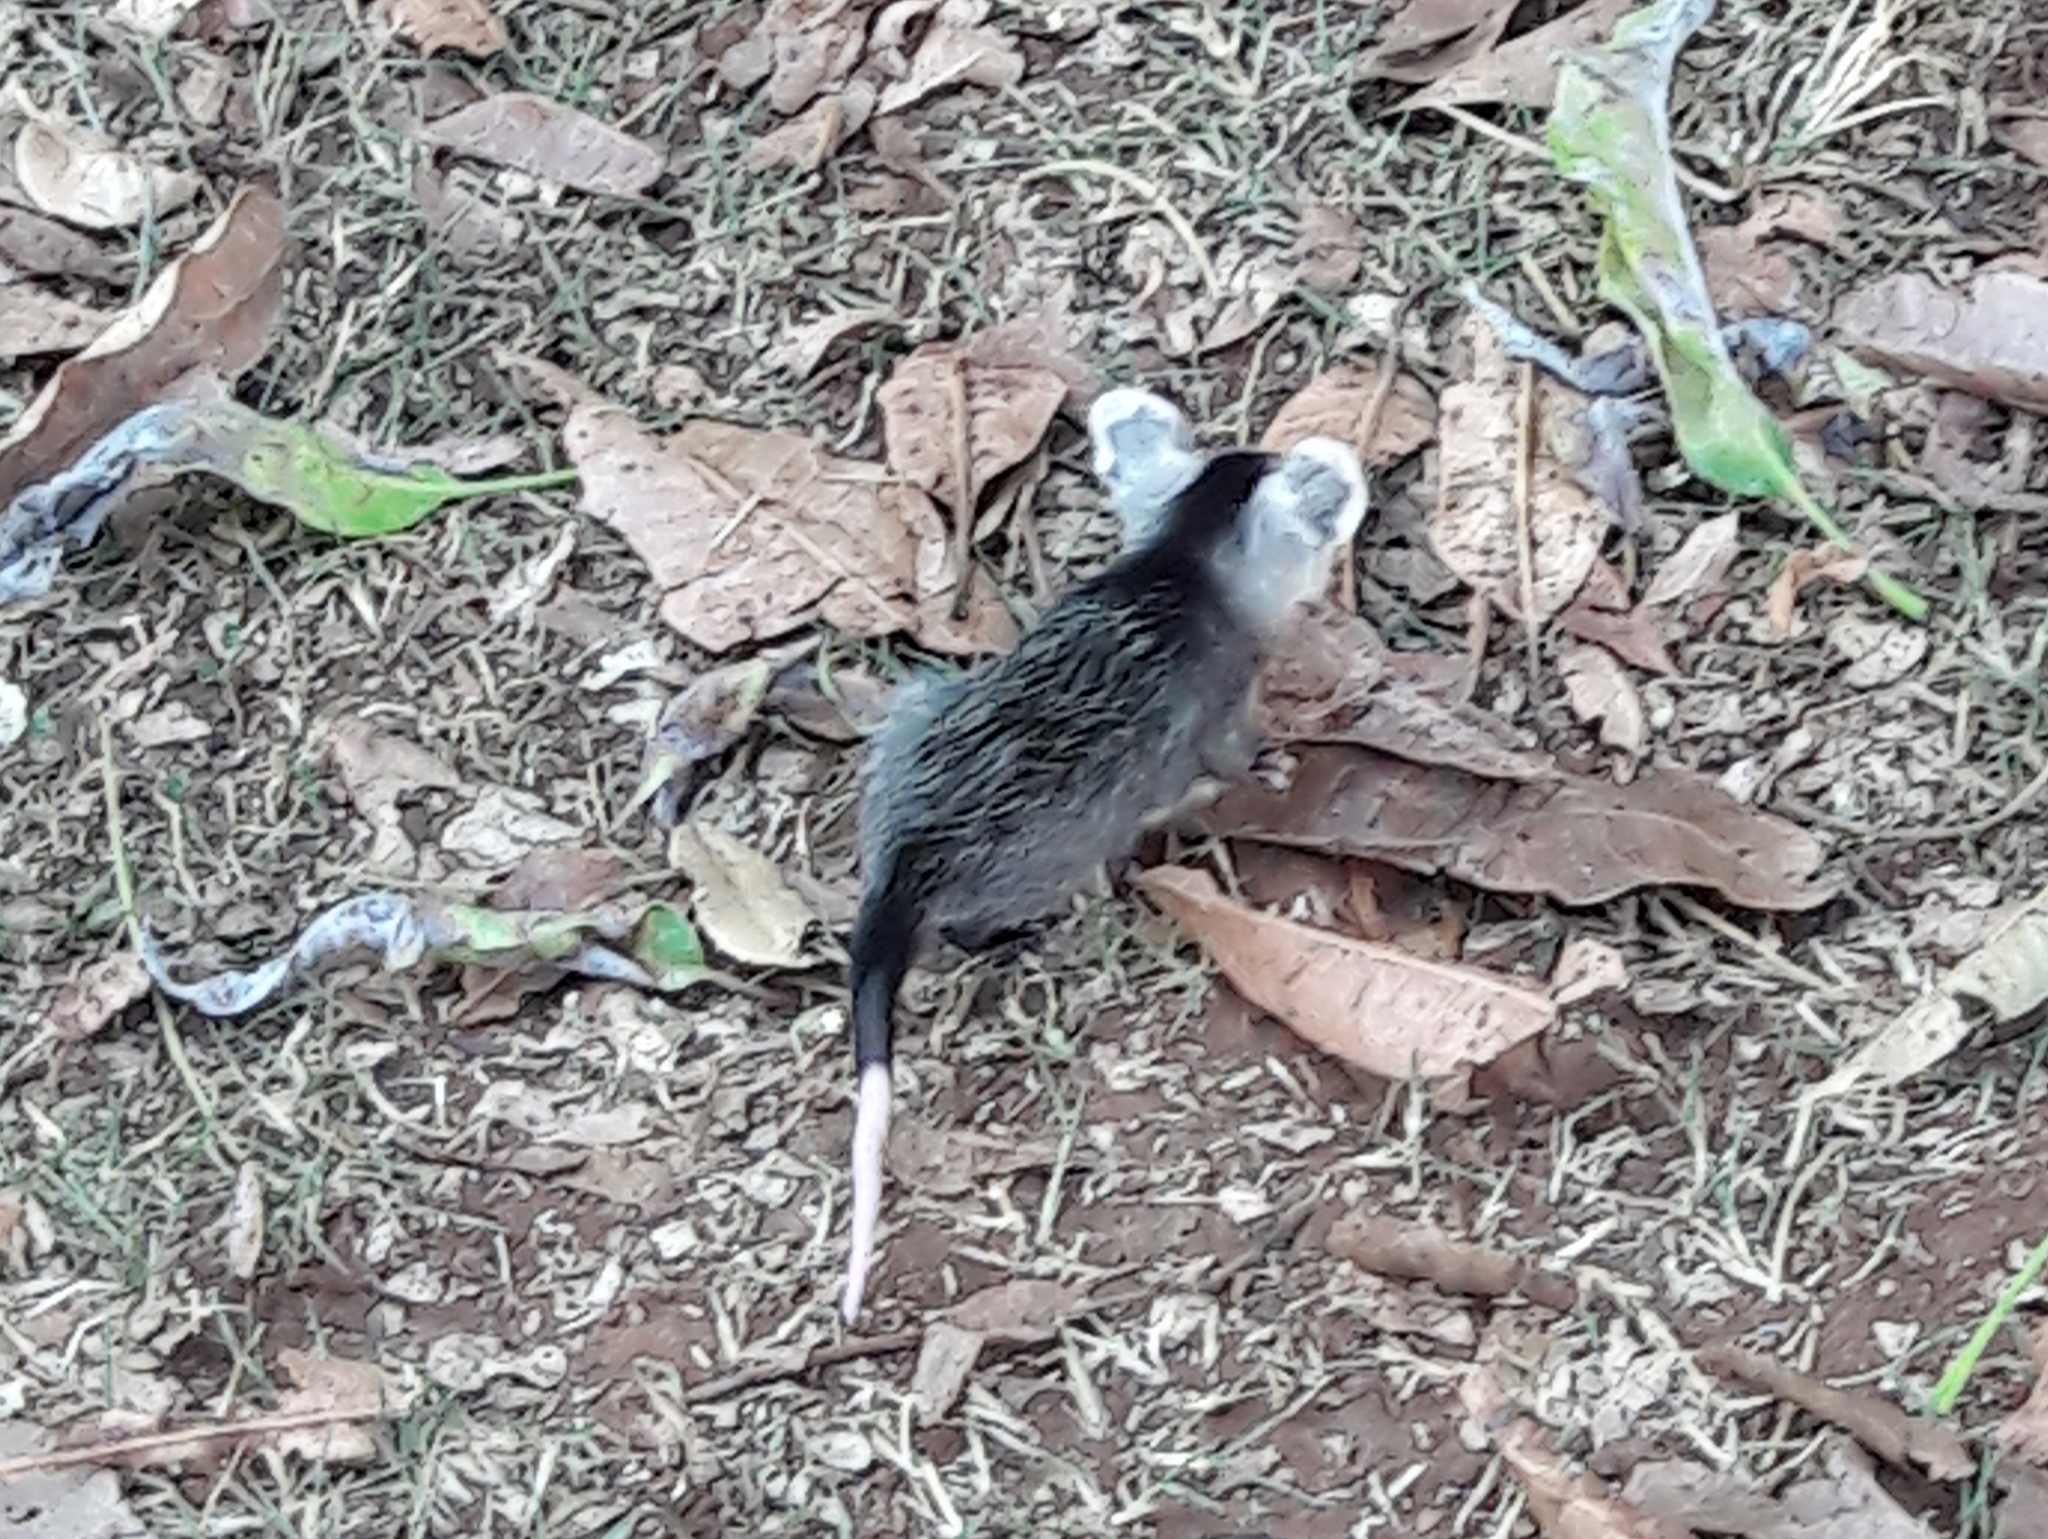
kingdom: Animalia
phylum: Chordata
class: Mammalia
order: Didelphimorphia
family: Didelphidae
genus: Didelphis
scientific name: Didelphis albiventris
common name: White-eared opossum
